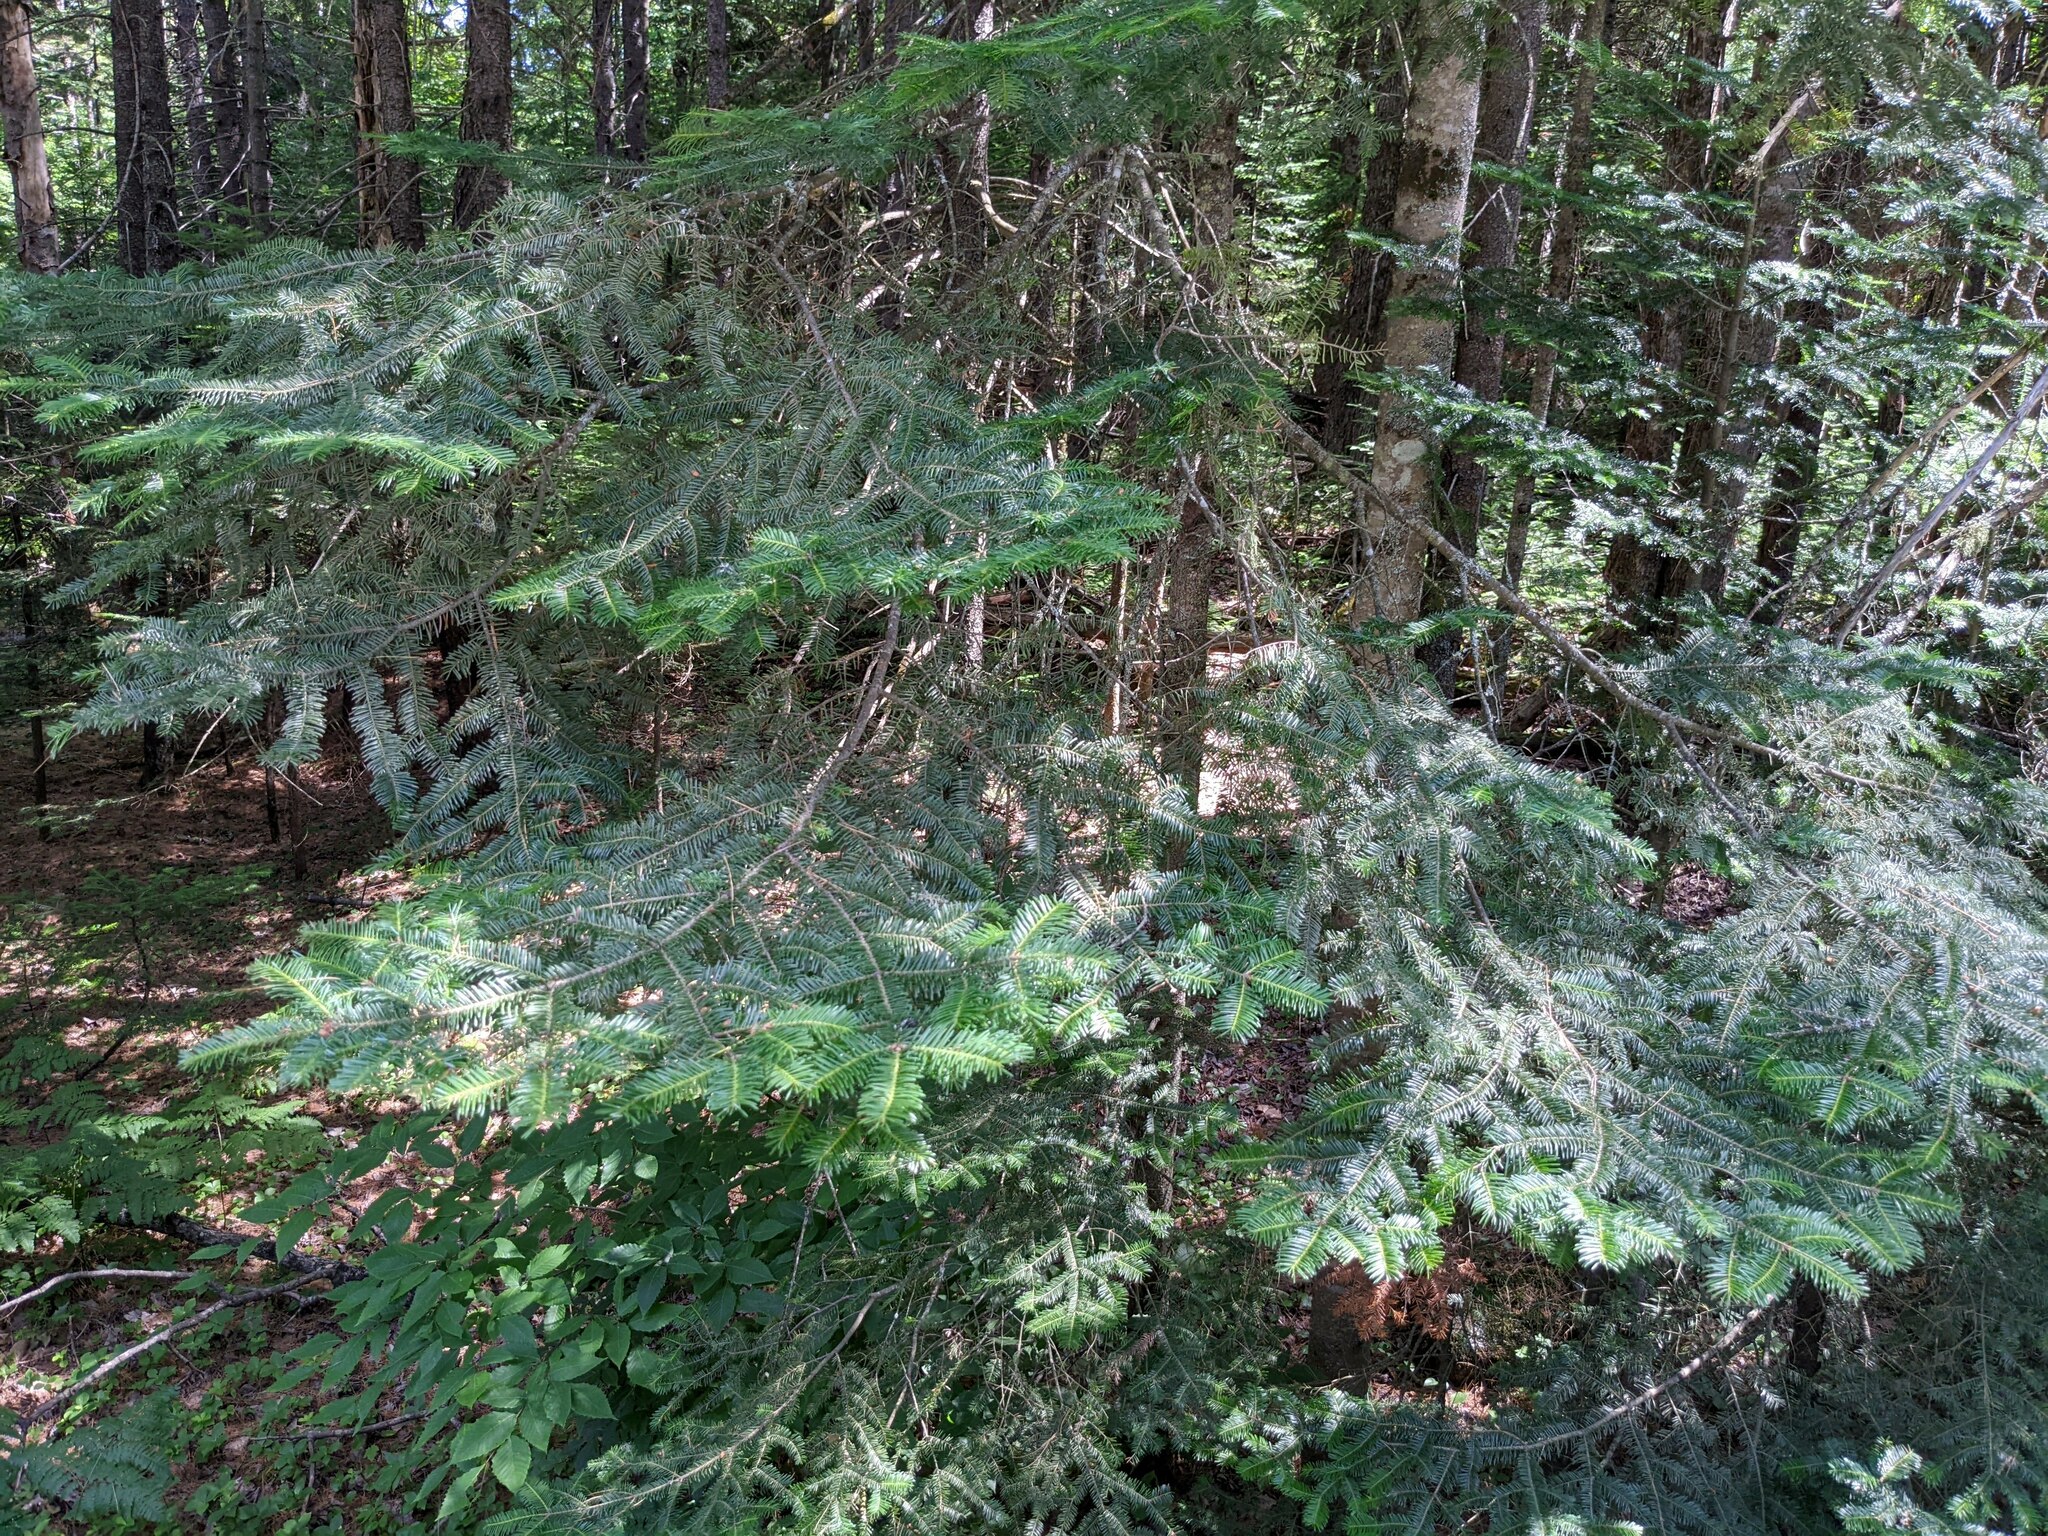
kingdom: Plantae
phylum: Tracheophyta
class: Pinopsida
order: Pinales
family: Pinaceae
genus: Abies
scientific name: Abies balsamea
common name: Balsam fir
